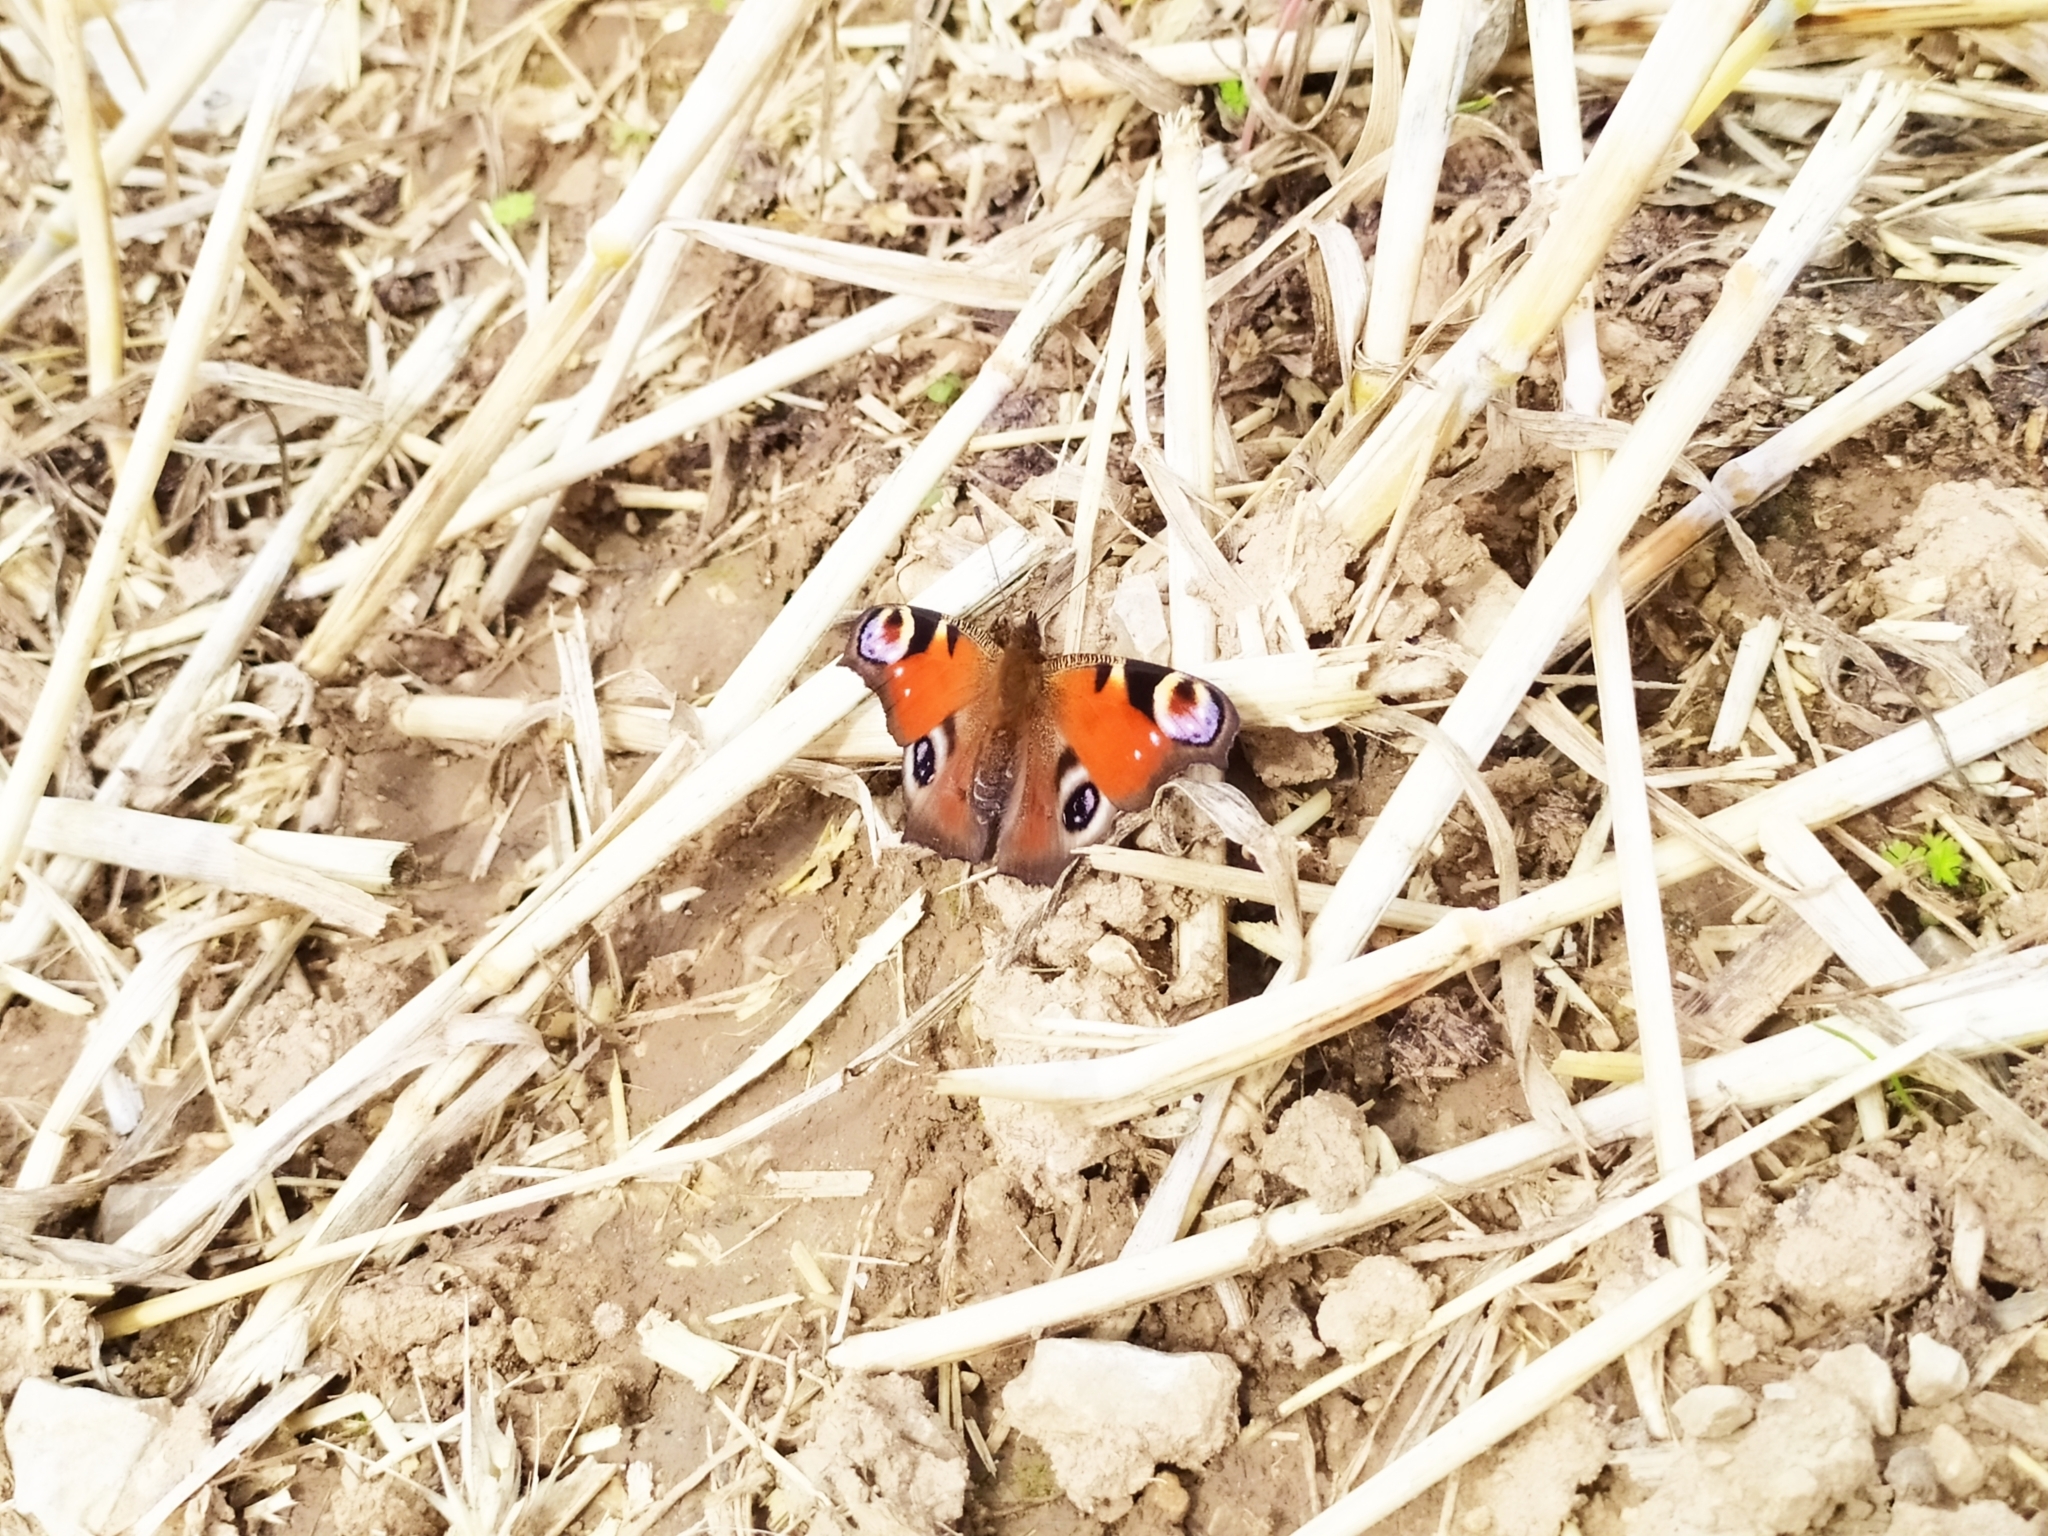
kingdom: Animalia
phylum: Arthropoda
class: Insecta
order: Lepidoptera
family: Nymphalidae
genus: Aglais
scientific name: Aglais io
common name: Peacock
